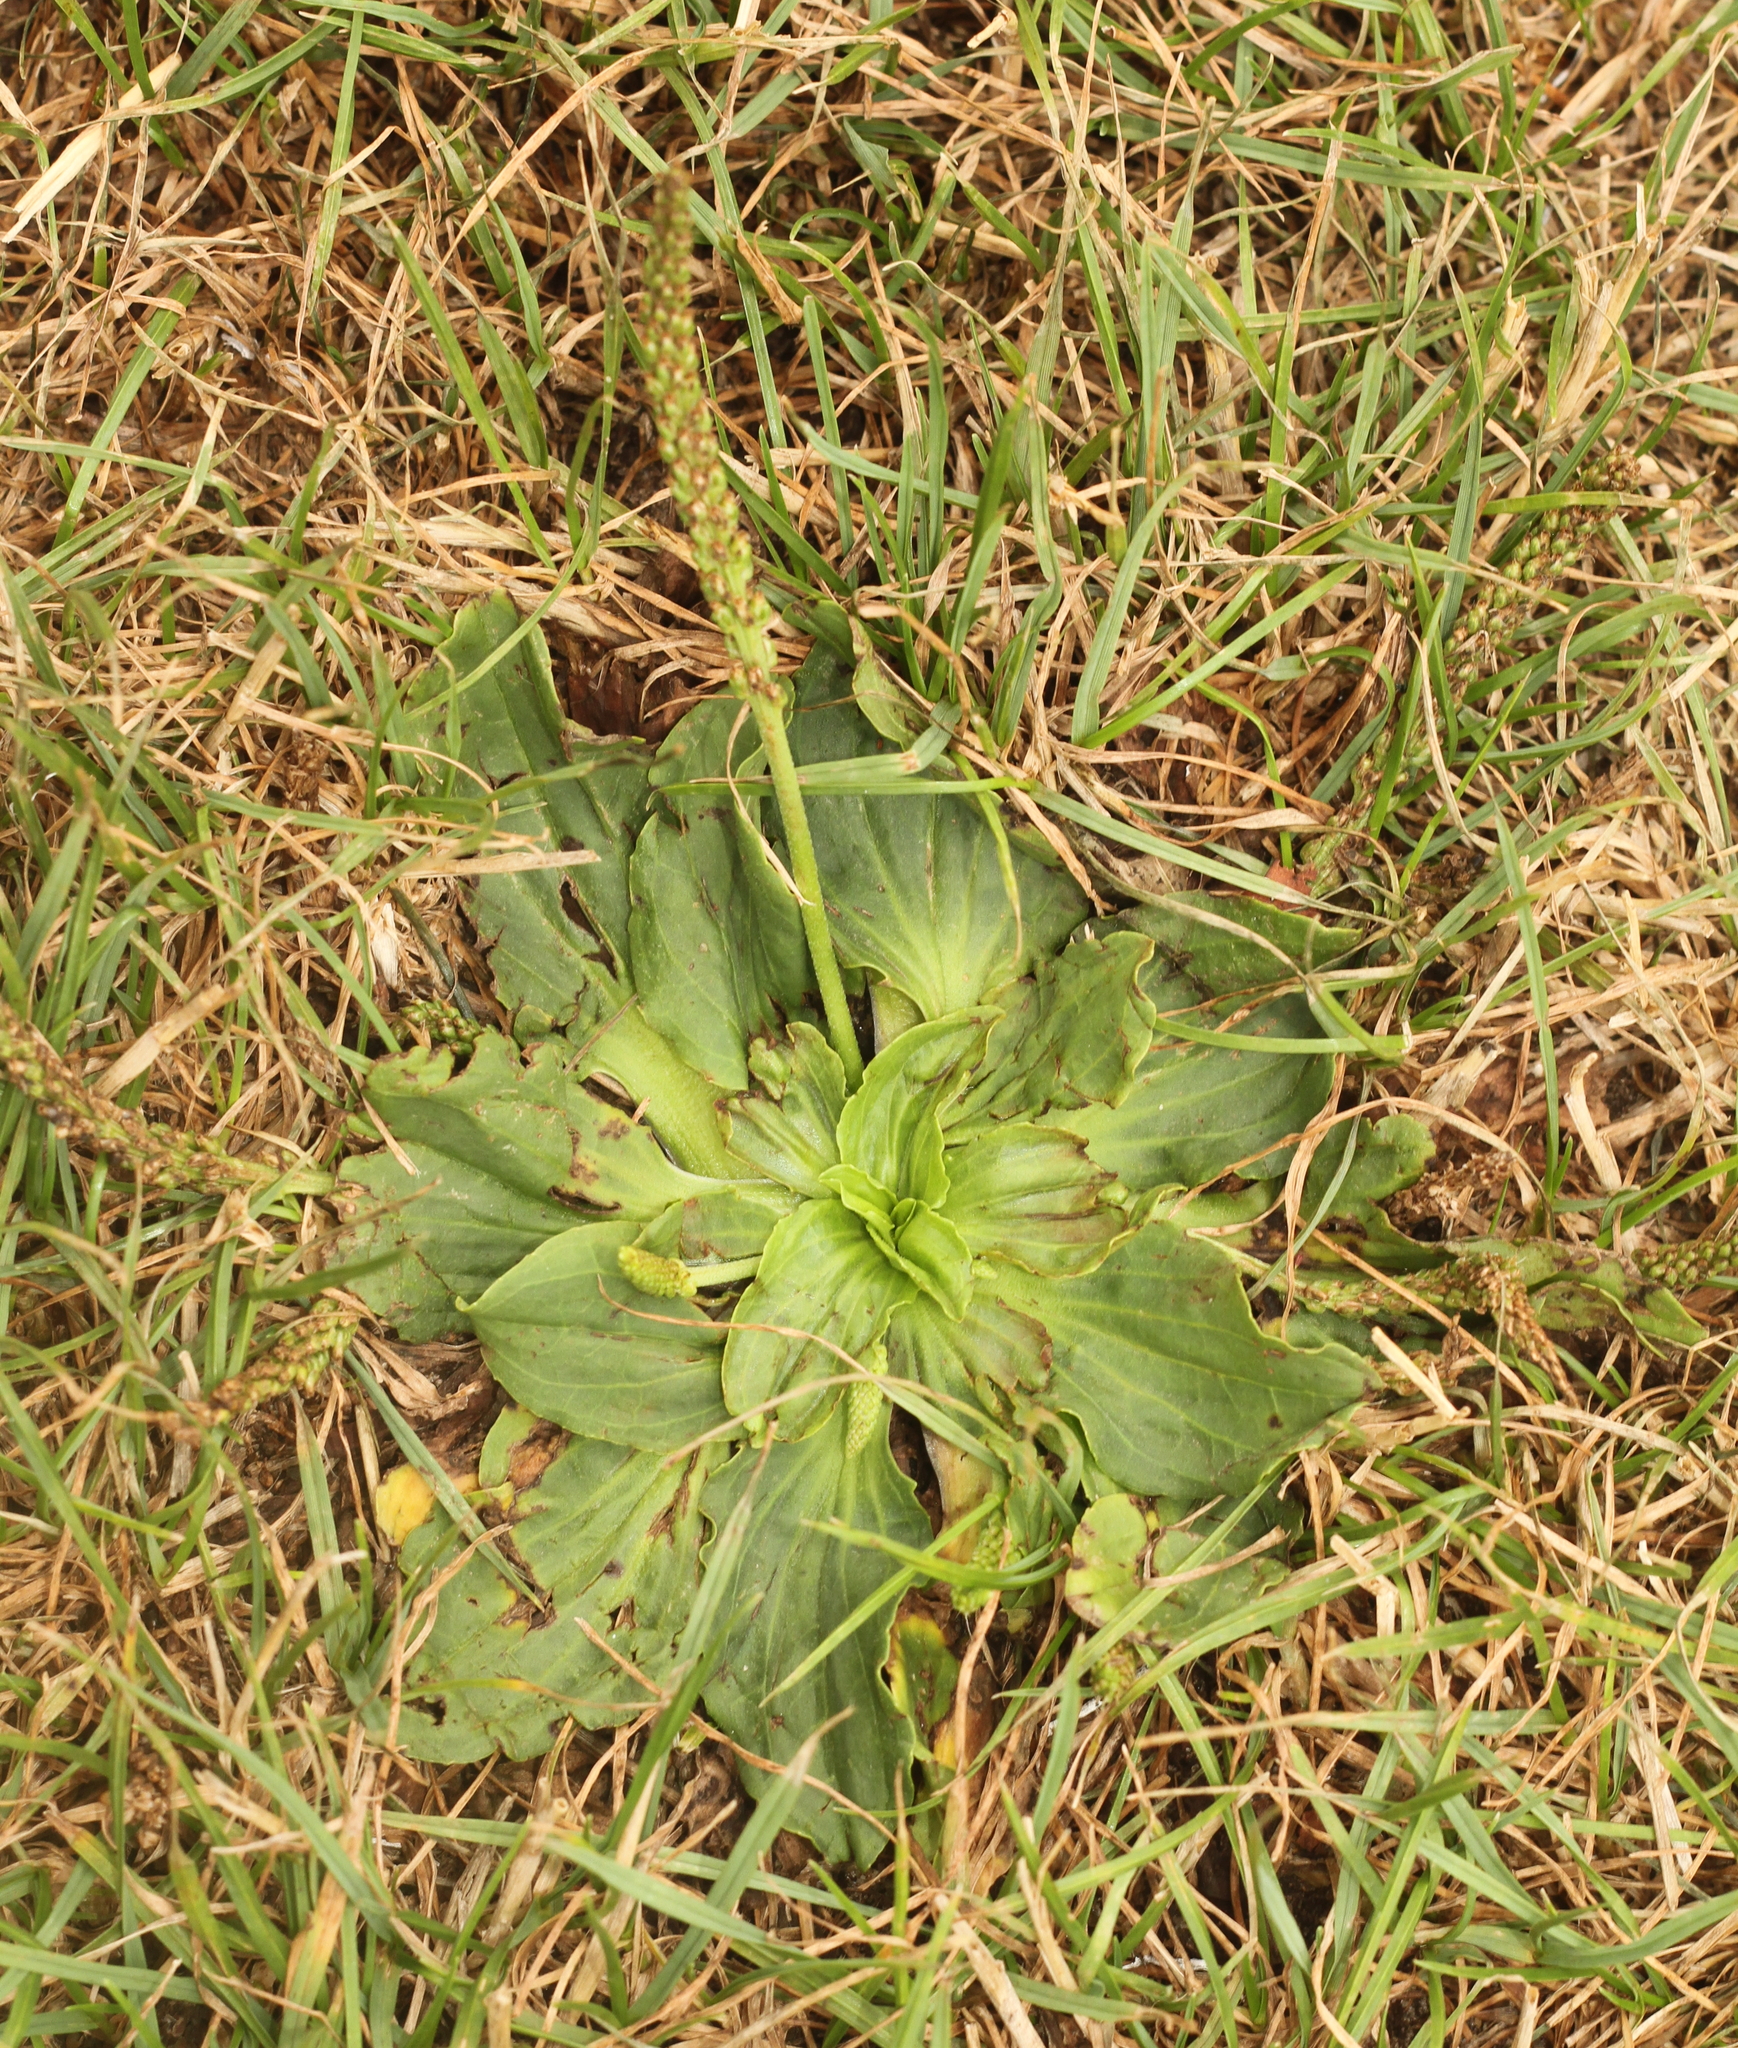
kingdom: Plantae
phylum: Tracheophyta
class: Magnoliopsida
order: Lamiales
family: Plantaginaceae
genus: Plantago
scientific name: Plantago major
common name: Common plantain
